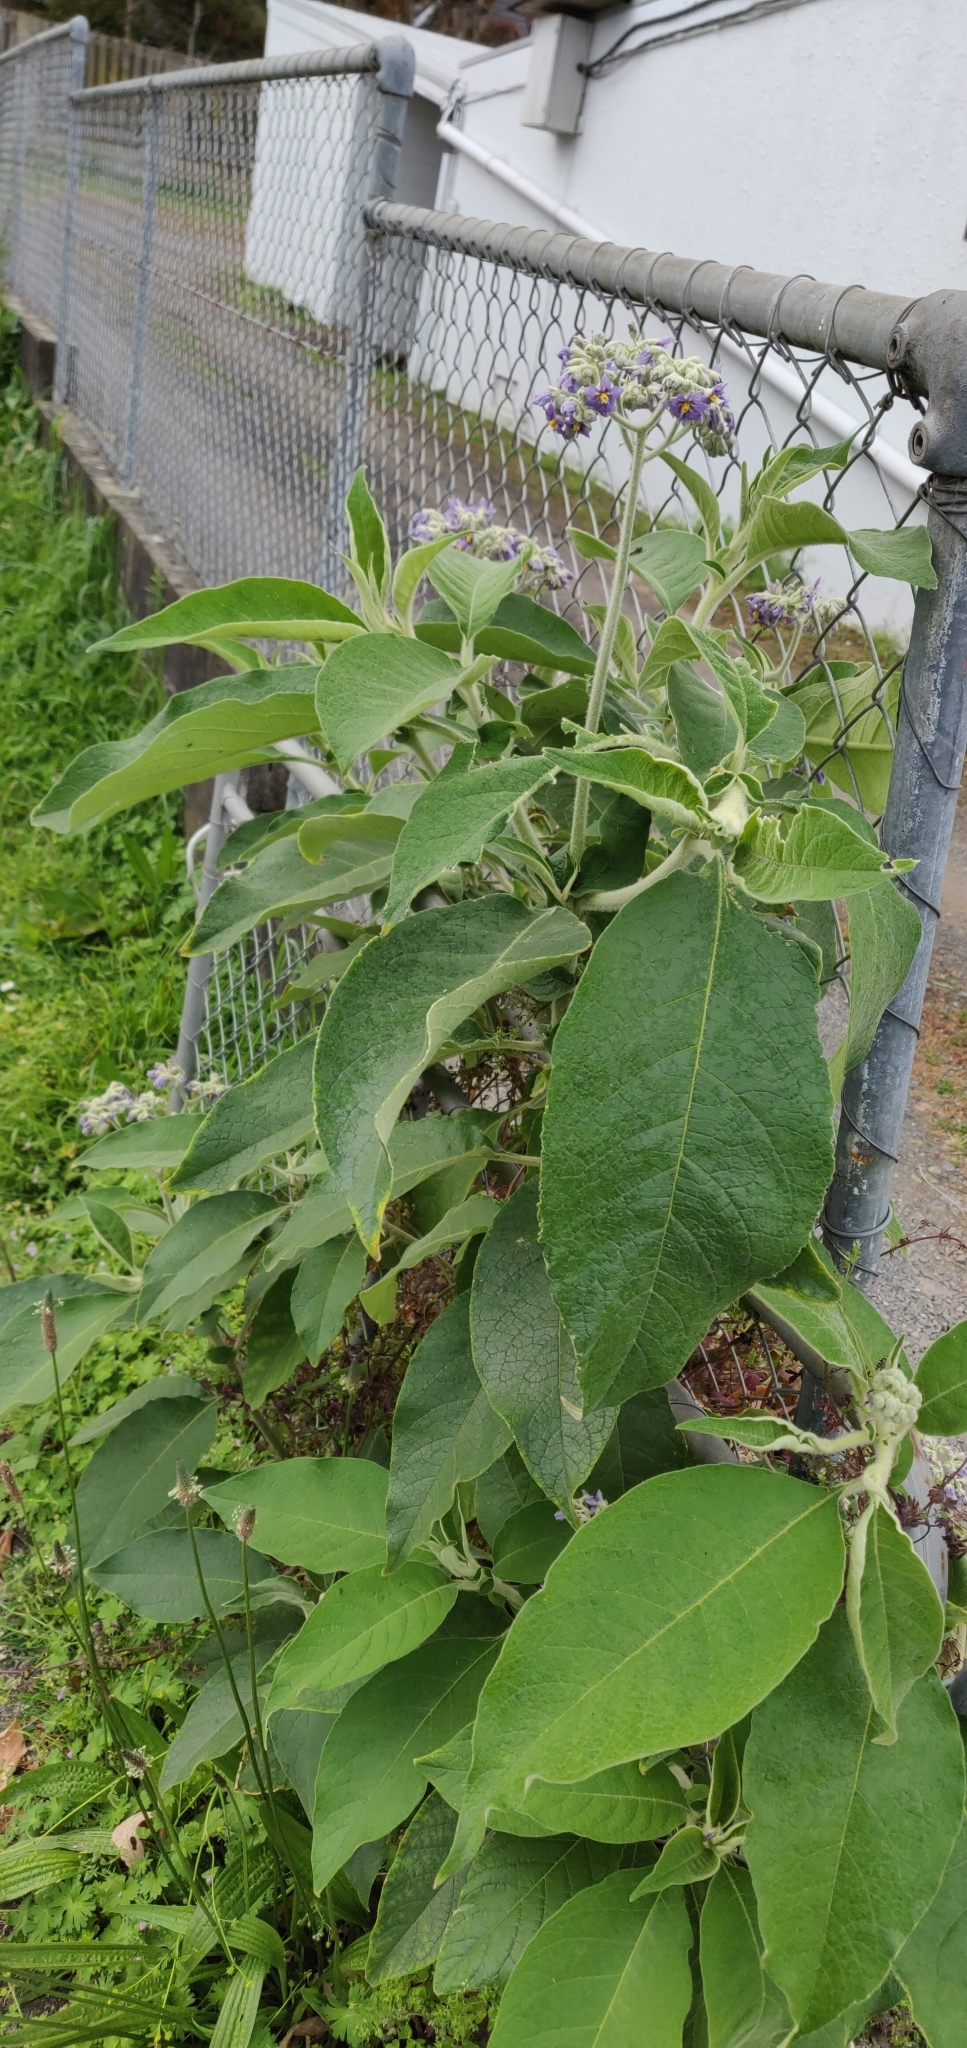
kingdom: Plantae
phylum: Tracheophyta
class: Magnoliopsida
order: Solanales
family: Solanaceae
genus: Solanum
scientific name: Solanum mauritianum
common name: Earleaf nightshade
